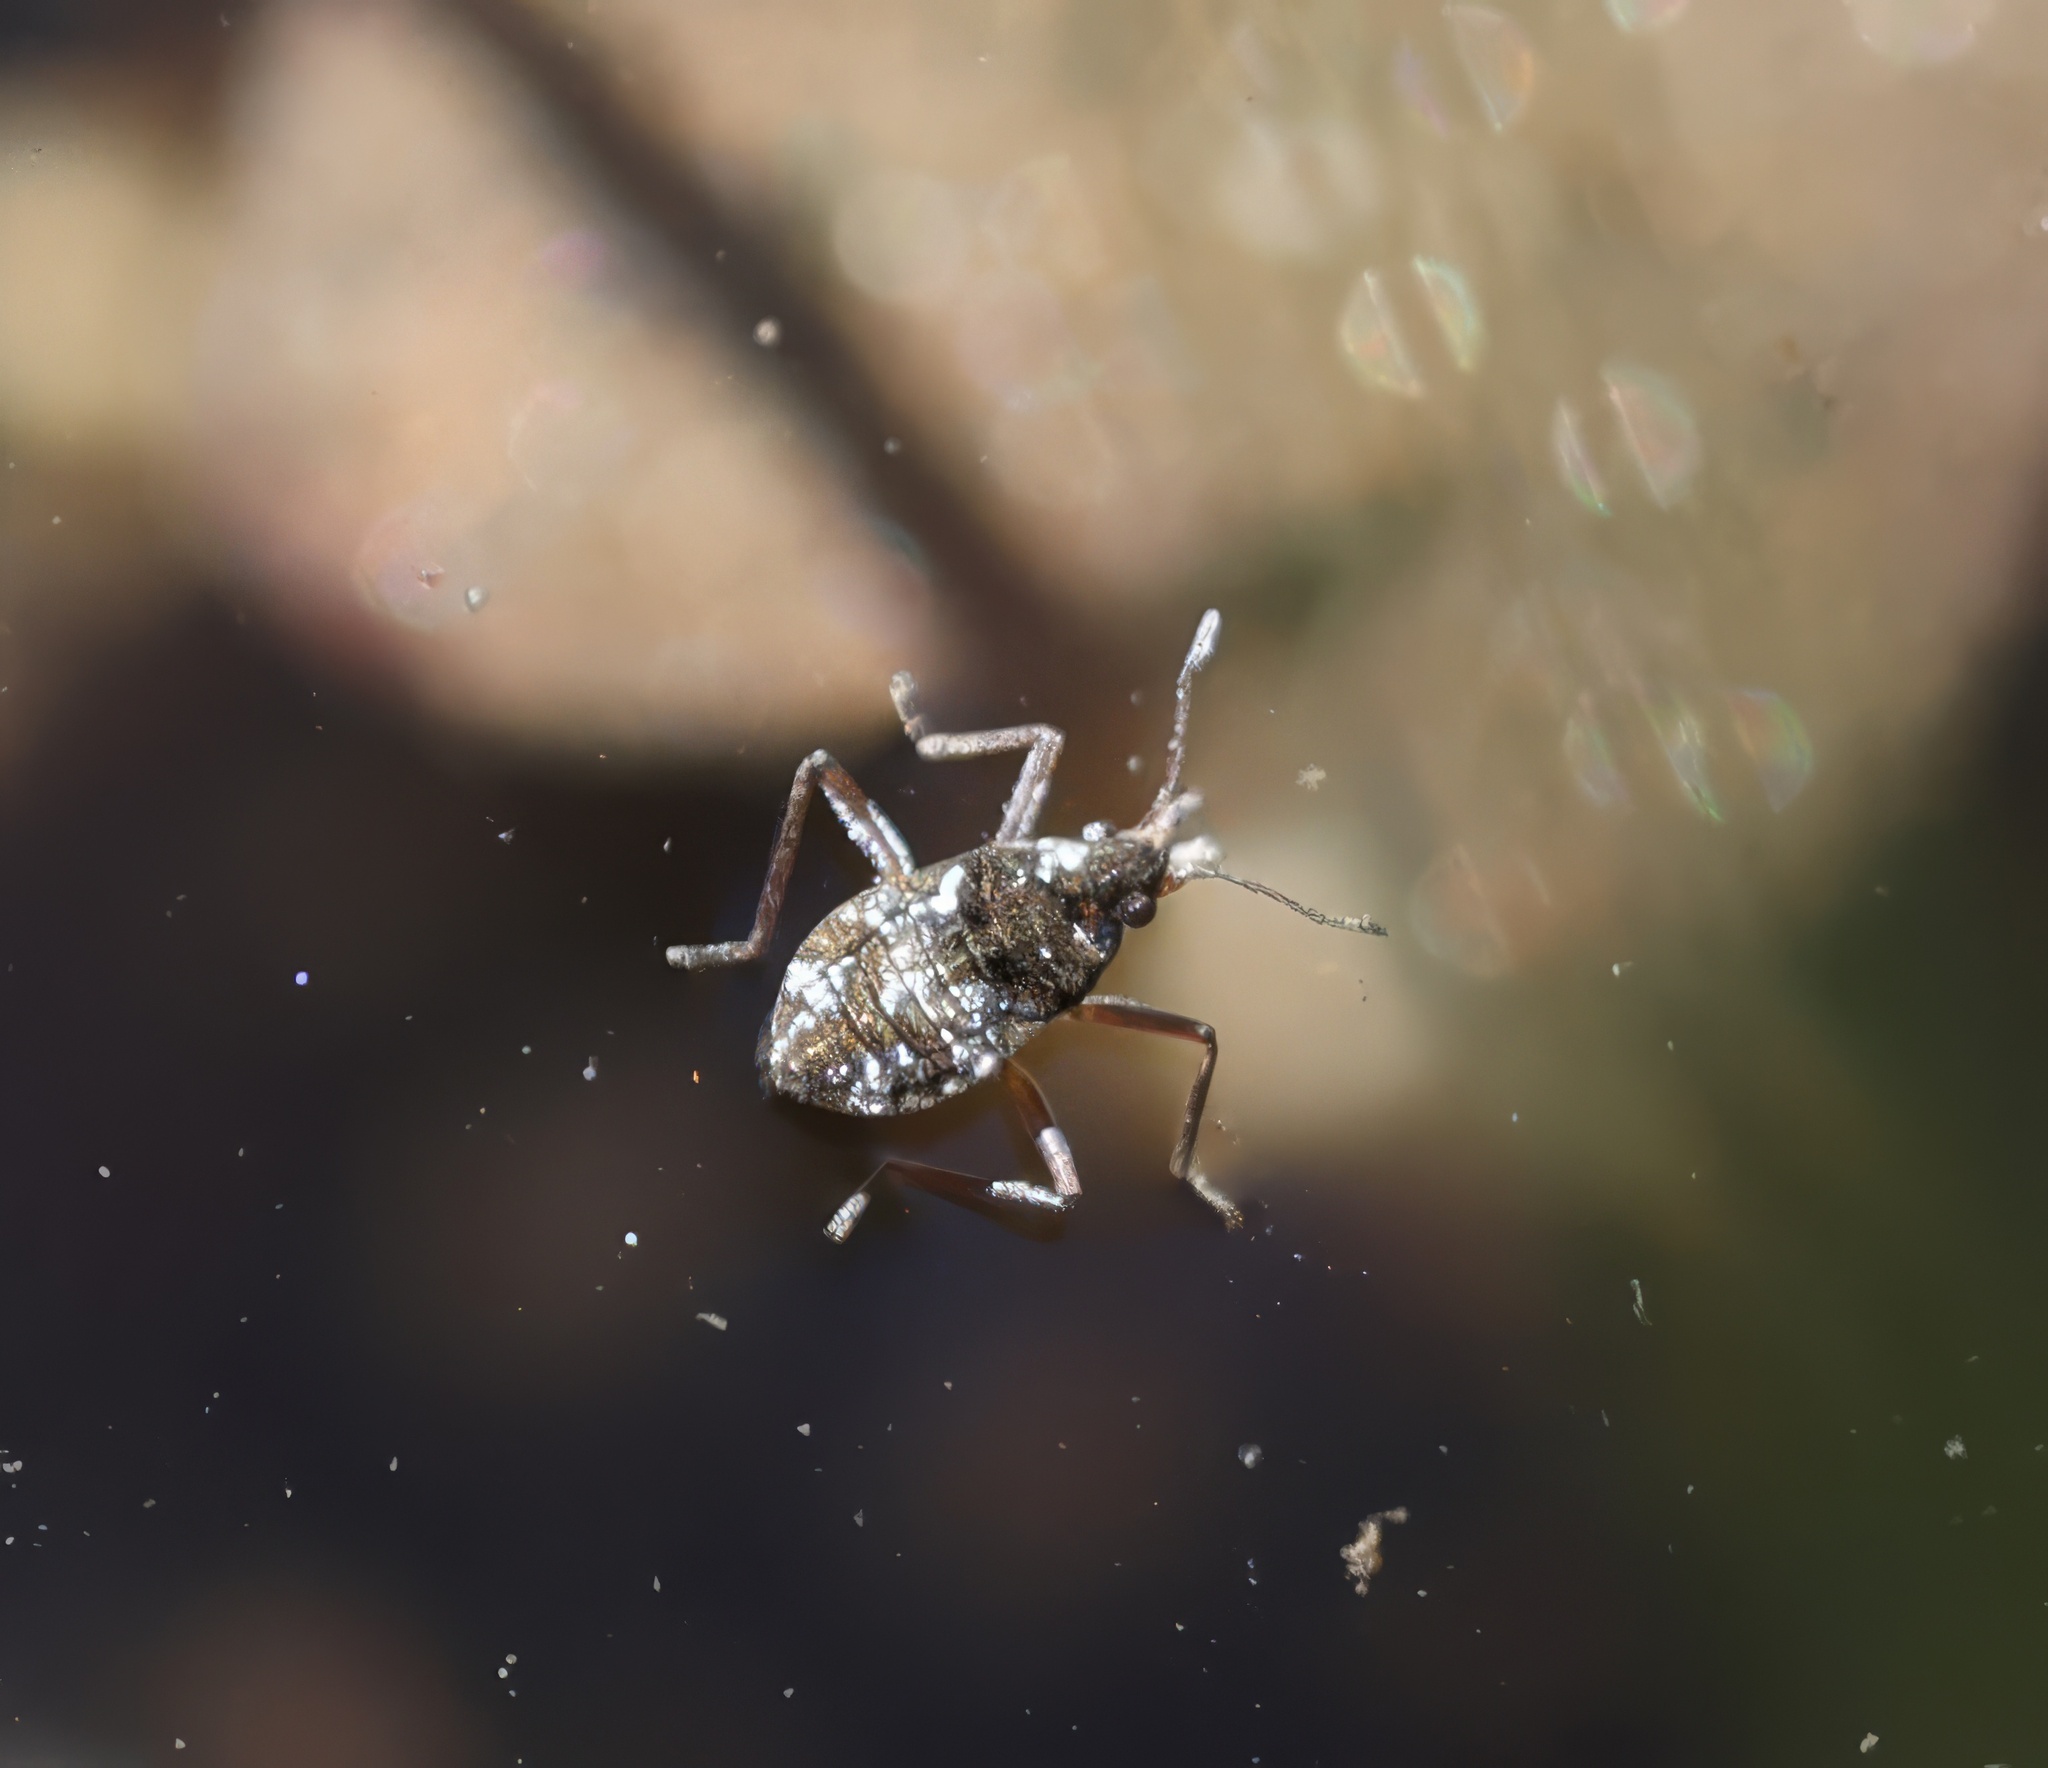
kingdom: Animalia
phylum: Arthropoda
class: Insecta
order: Hemiptera
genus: Kirkaldya
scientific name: Kirkaldya
